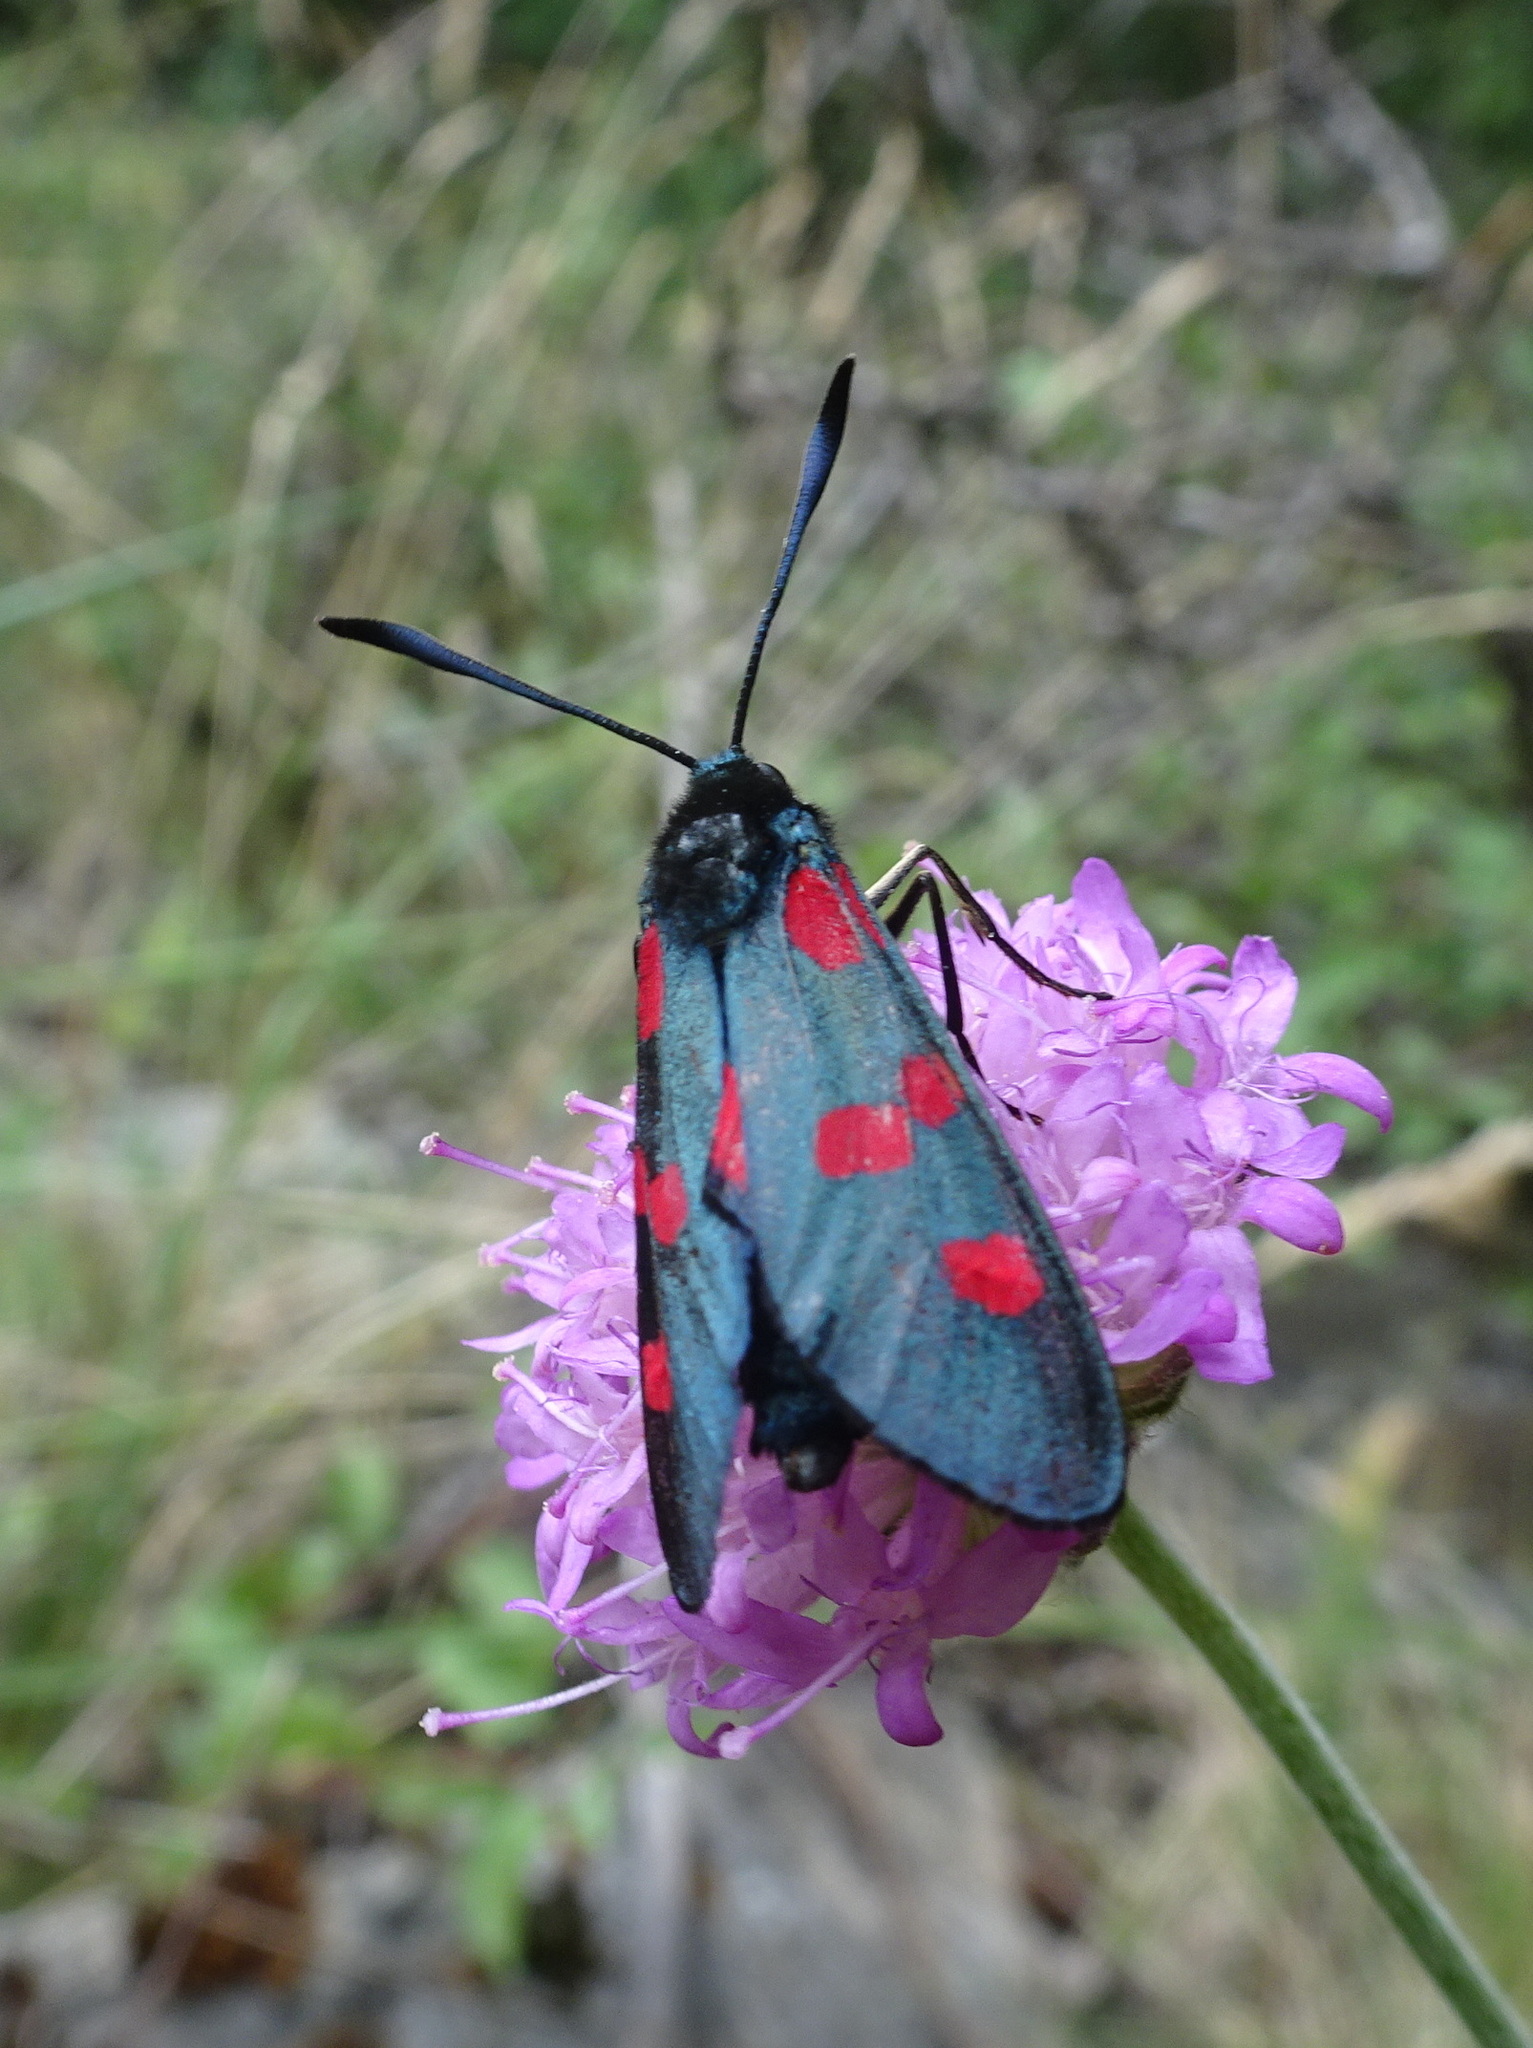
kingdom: Animalia
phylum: Arthropoda
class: Insecta
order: Lepidoptera
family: Zygaenidae
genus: Zygaena
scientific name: Zygaena trifolii
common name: Five-spot burnet
